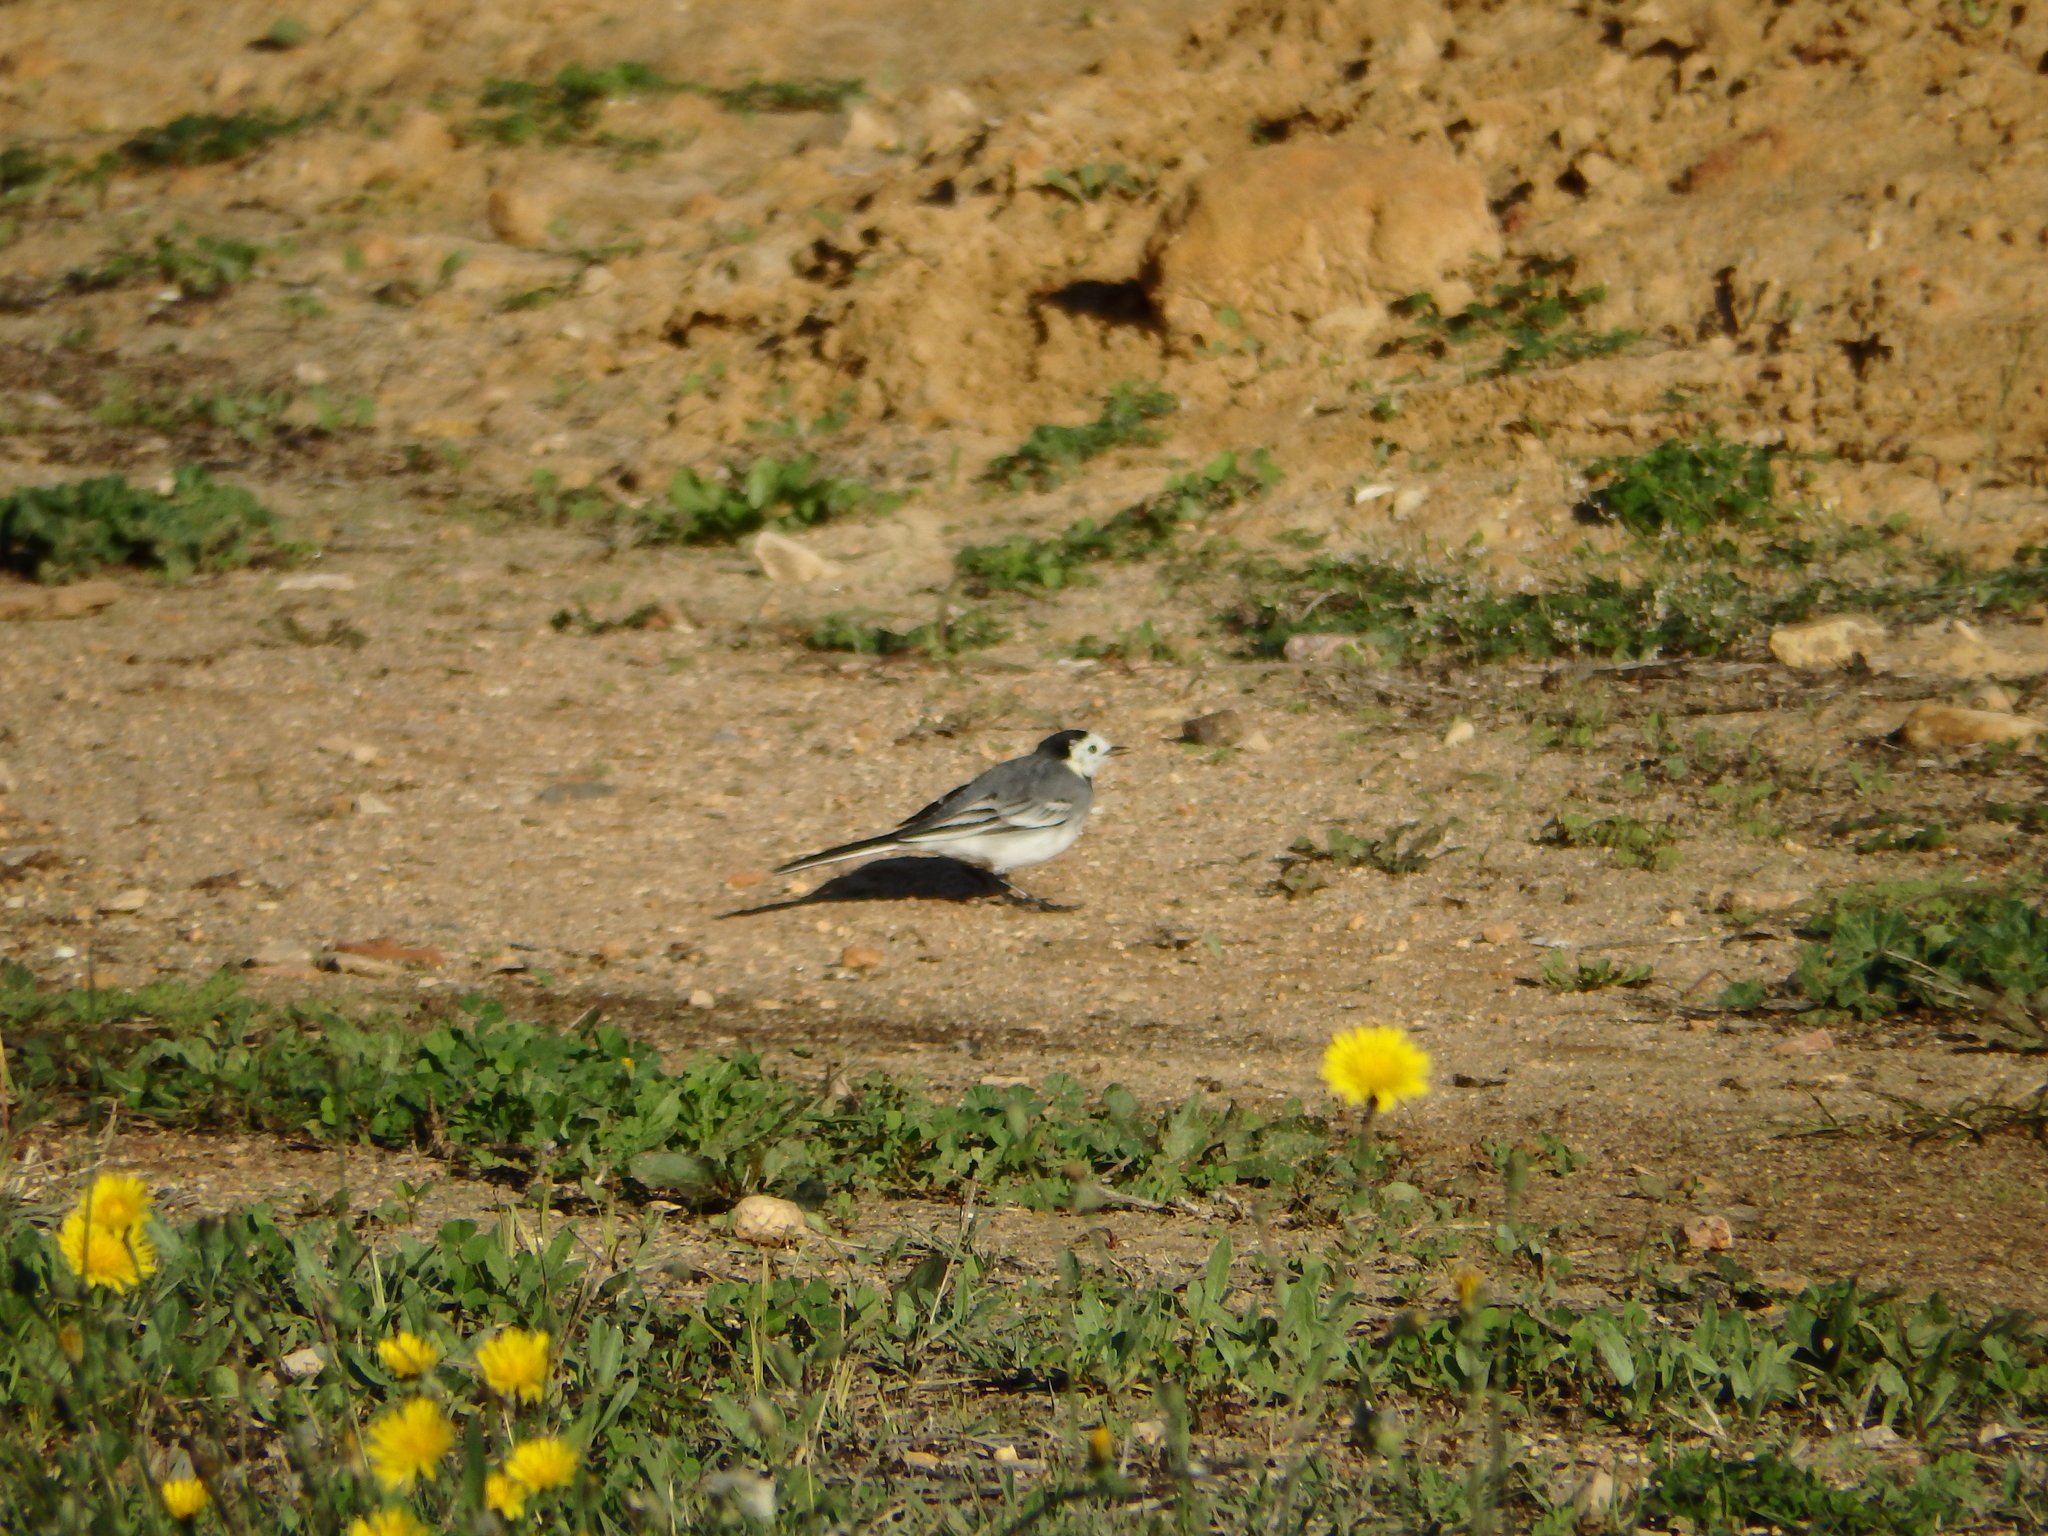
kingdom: Animalia
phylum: Chordata
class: Aves
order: Passeriformes
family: Motacillidae
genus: Motacilla
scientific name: Motacilla alba
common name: White wagtail
